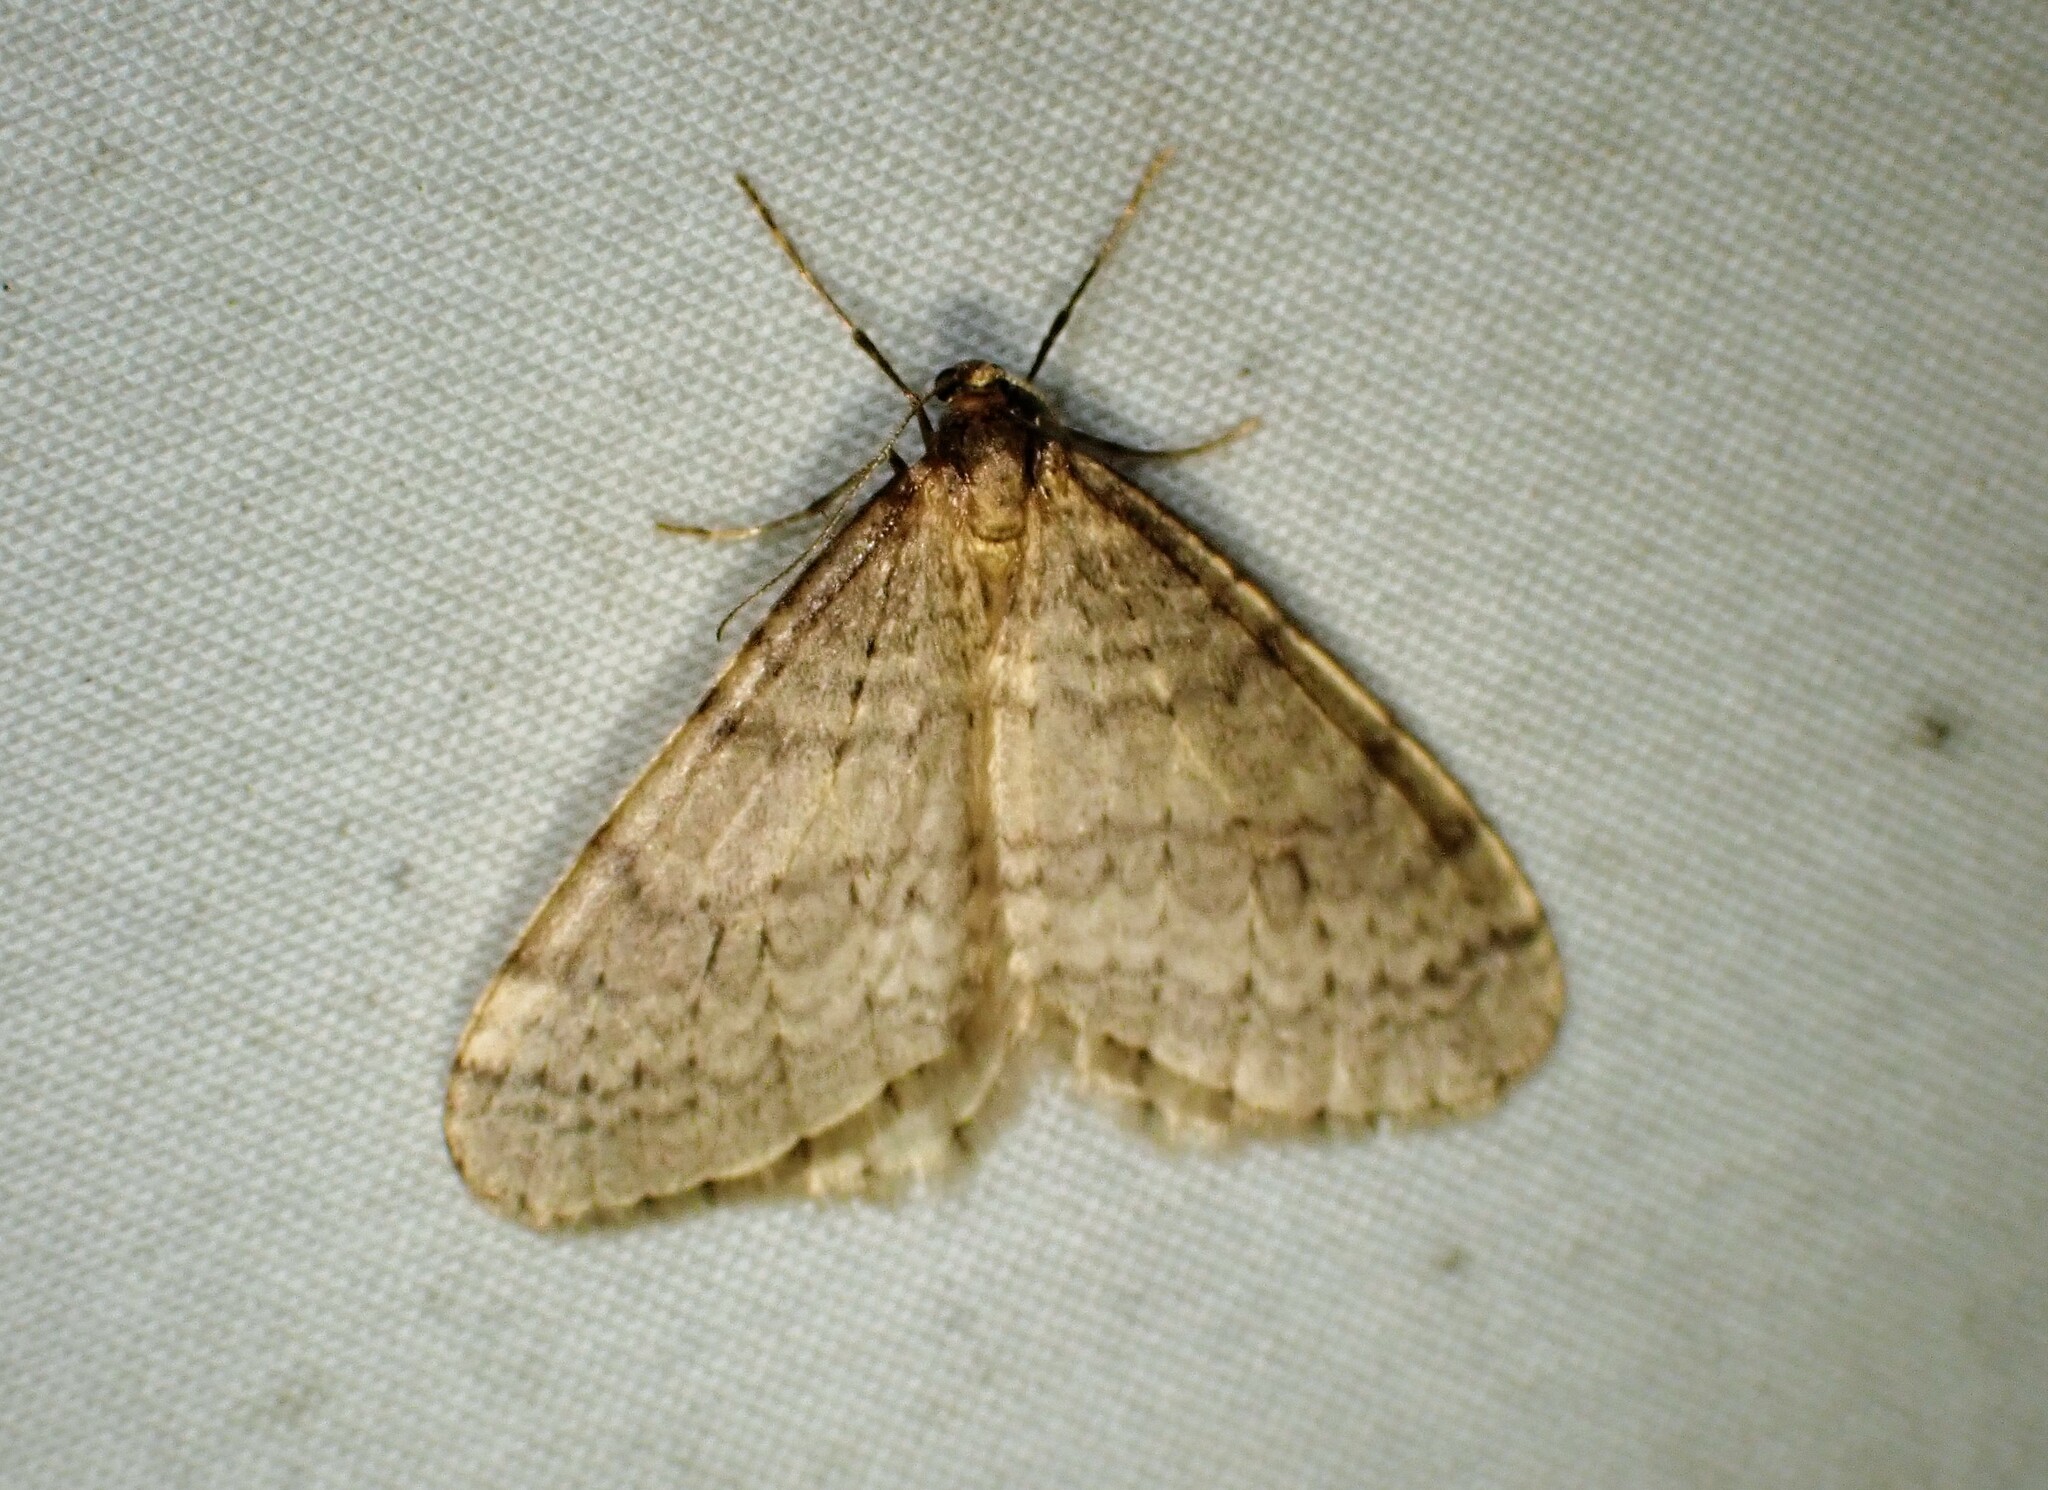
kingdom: Animalia
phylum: Arthropoda
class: Insecta
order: Lepidoptera
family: Geometridae
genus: Operophtera
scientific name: Operophtera bruceata
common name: Bruce spanworm
